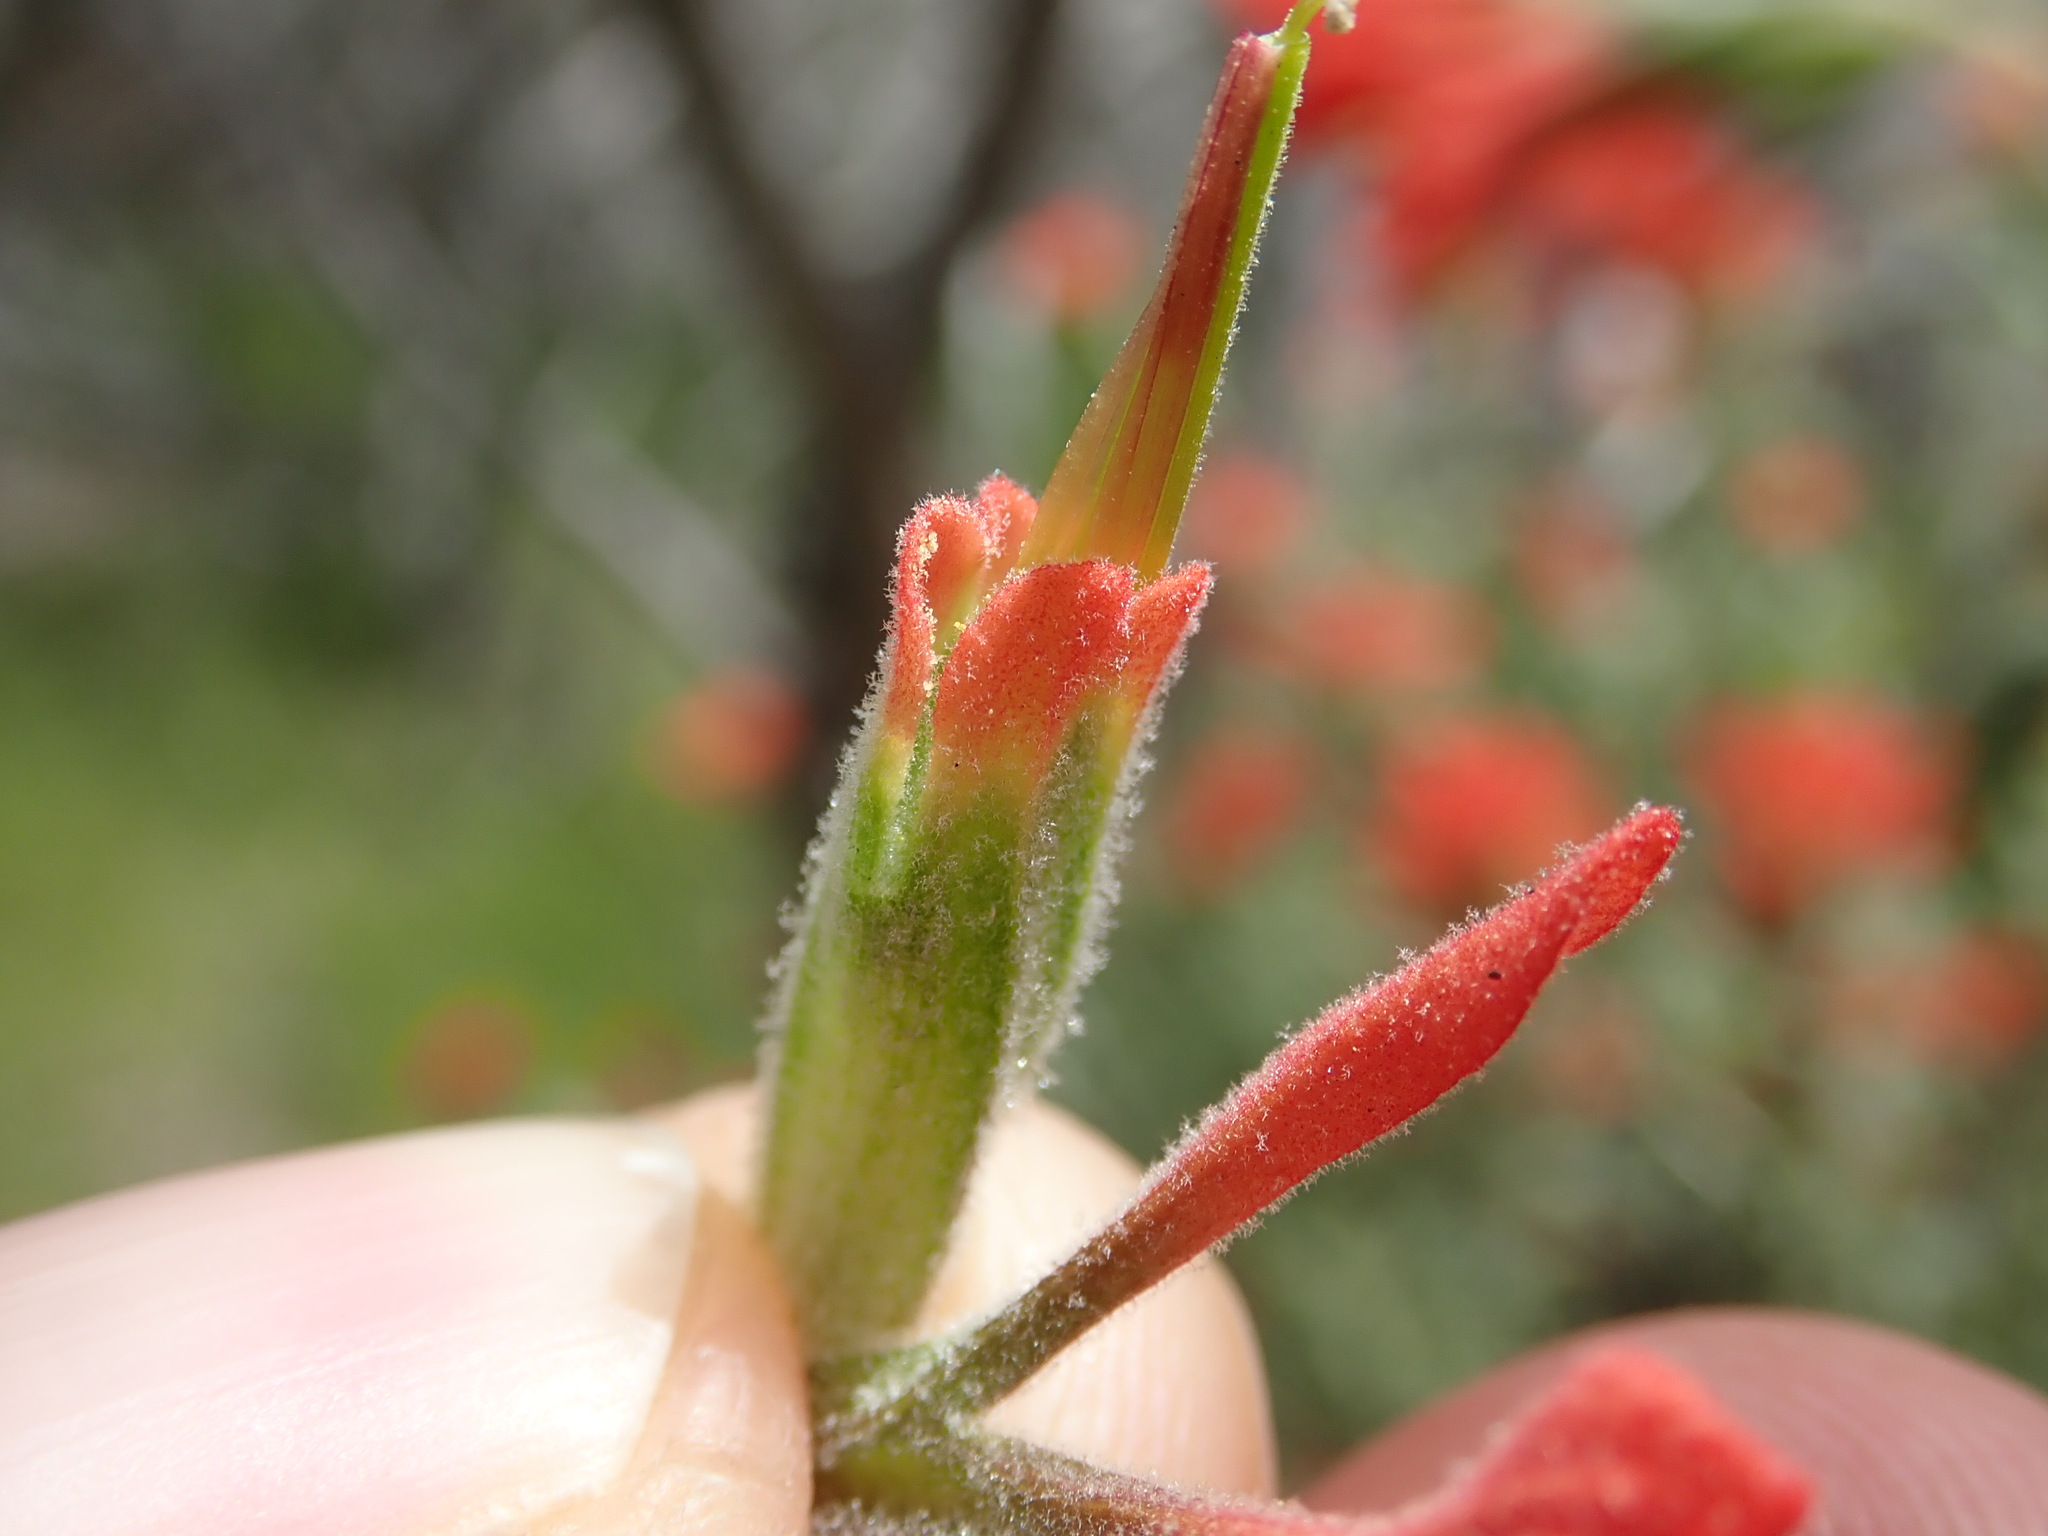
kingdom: Plantae
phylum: Tracheophyta
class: Magnoliopsida
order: Lamiales
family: Orobanchaceae
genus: Castilleja
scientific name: Castilleja foliolosa
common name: Woolly indian paintbrush
